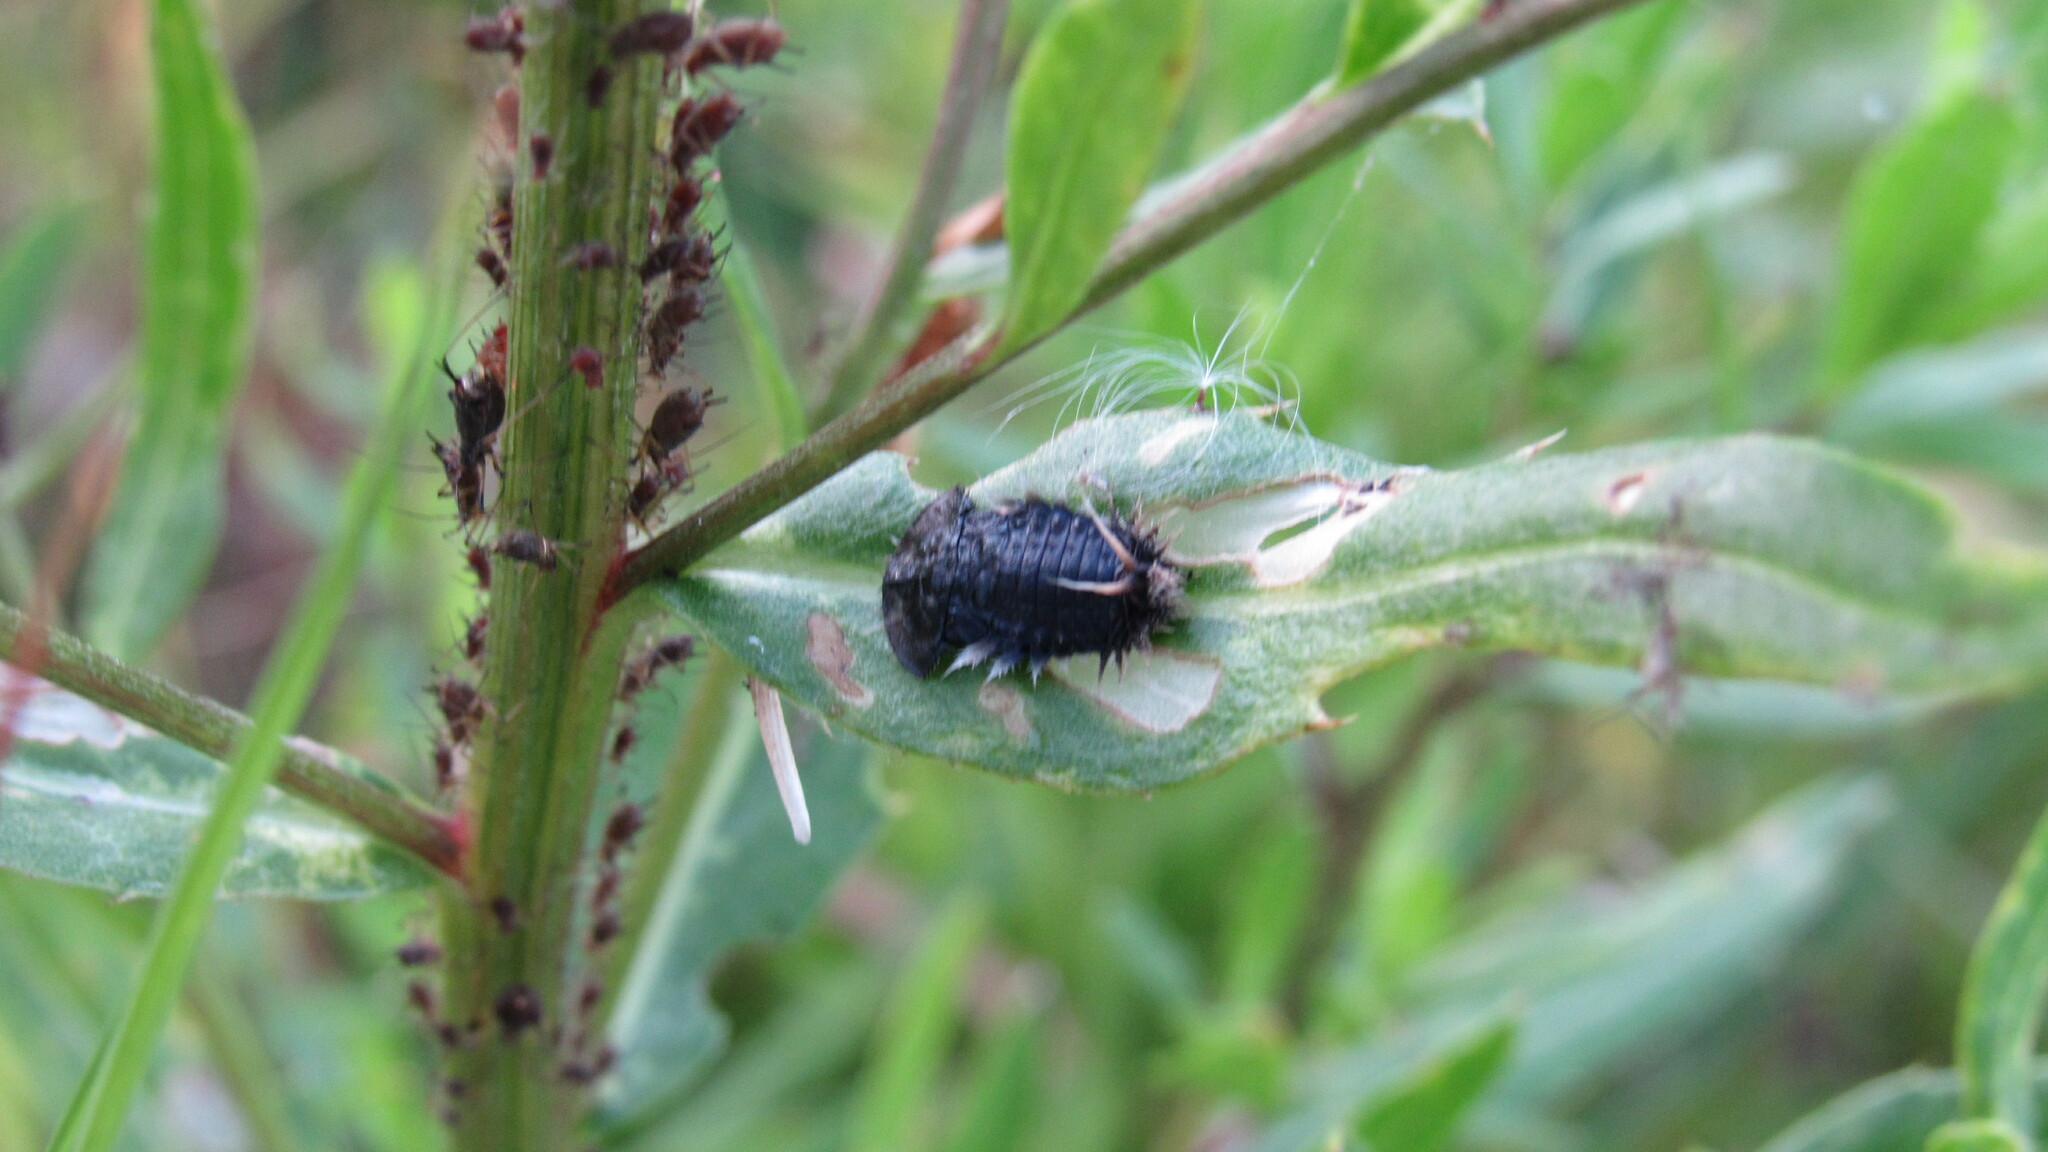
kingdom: Animalia
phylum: Arthropoda
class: Insecta
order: Coleoptera
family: Chrysomelidae
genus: Cassida
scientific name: Cassida rubiginosa
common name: Thistle tortoise beetle
